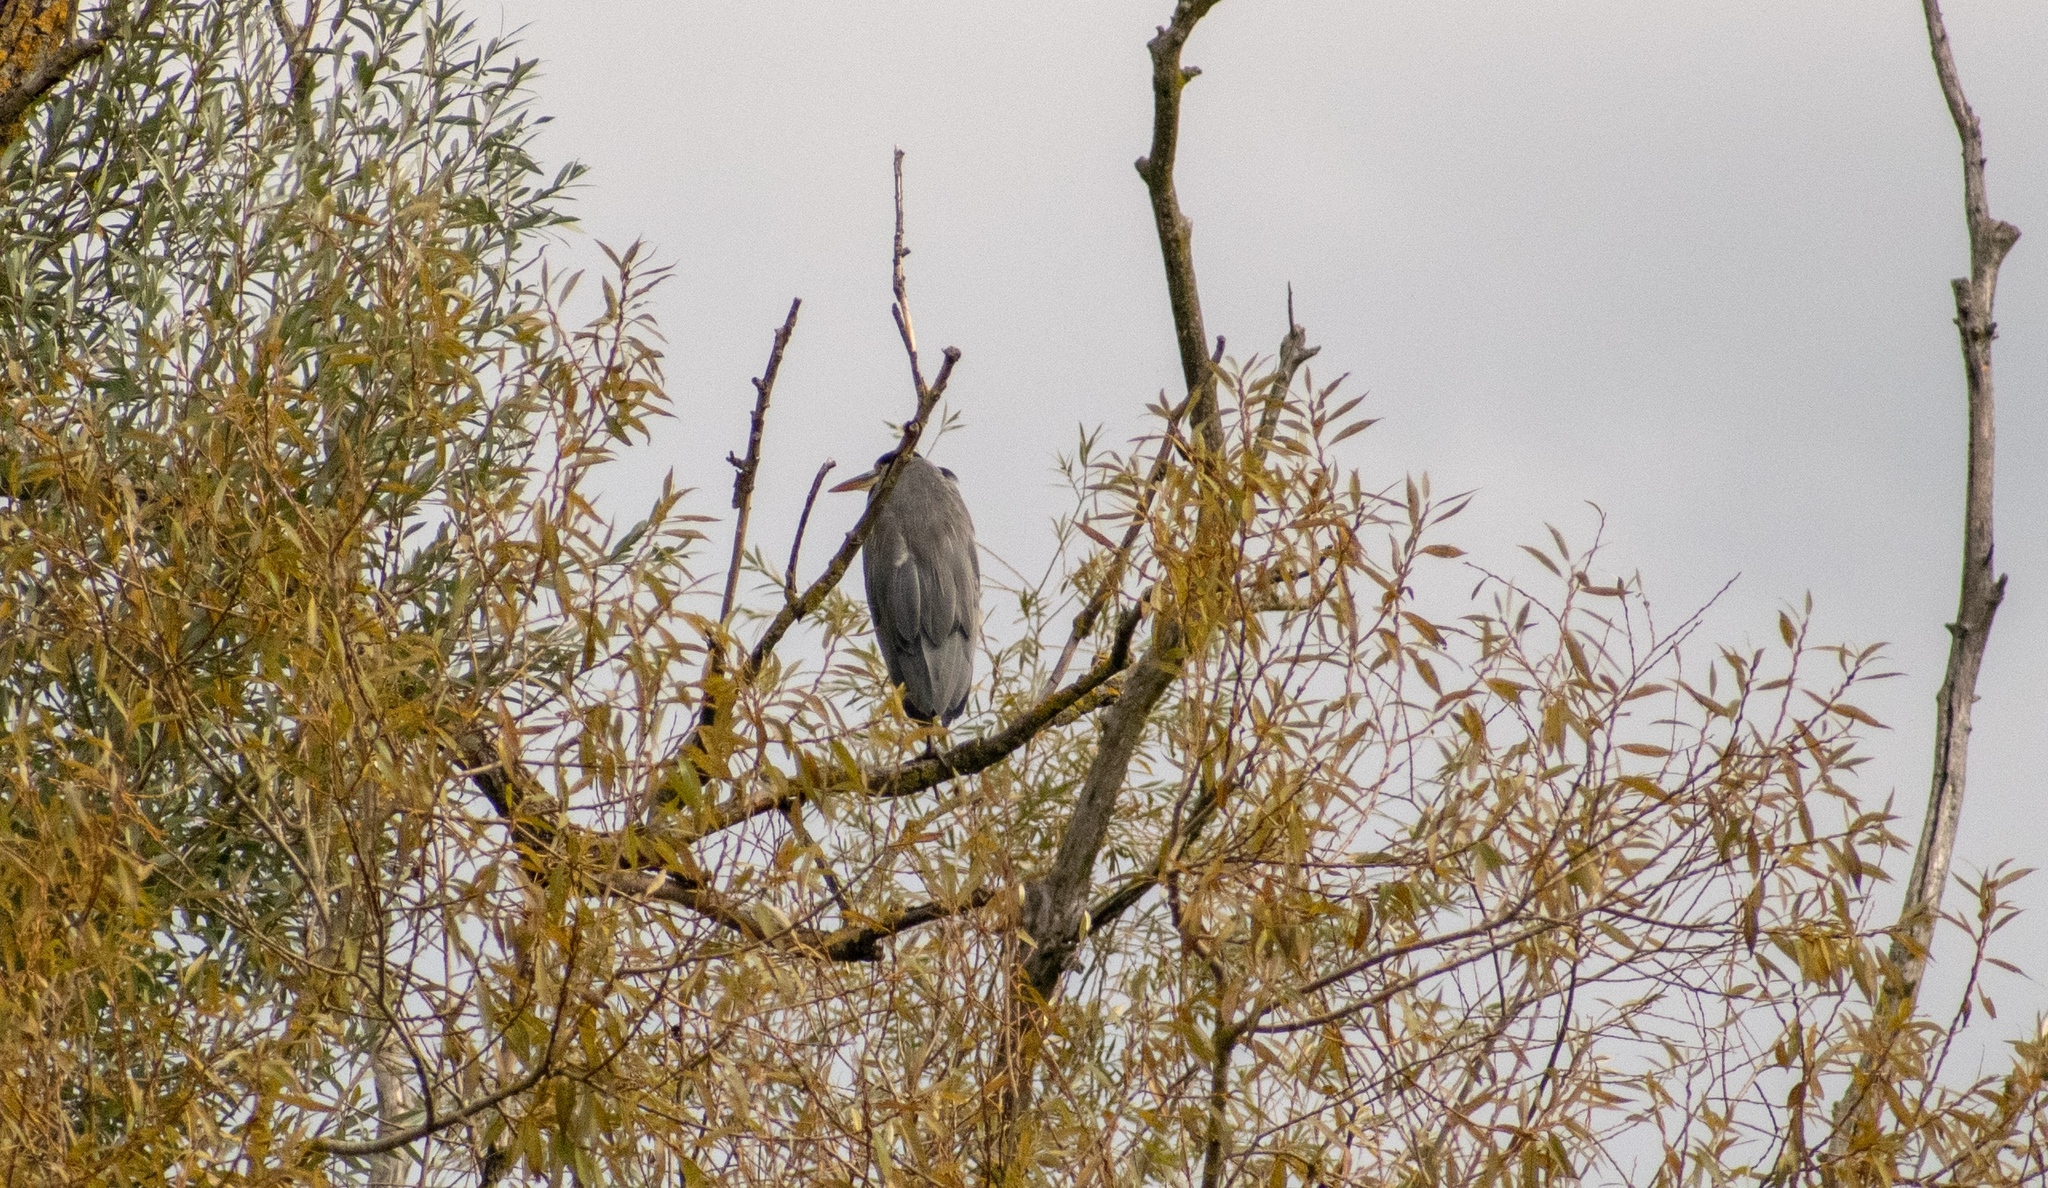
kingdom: Animalia
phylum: Chordata
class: Aves
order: Pelecaniformes
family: Ardeidae
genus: Ardea
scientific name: Ardea cinerea
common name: Grey heron
